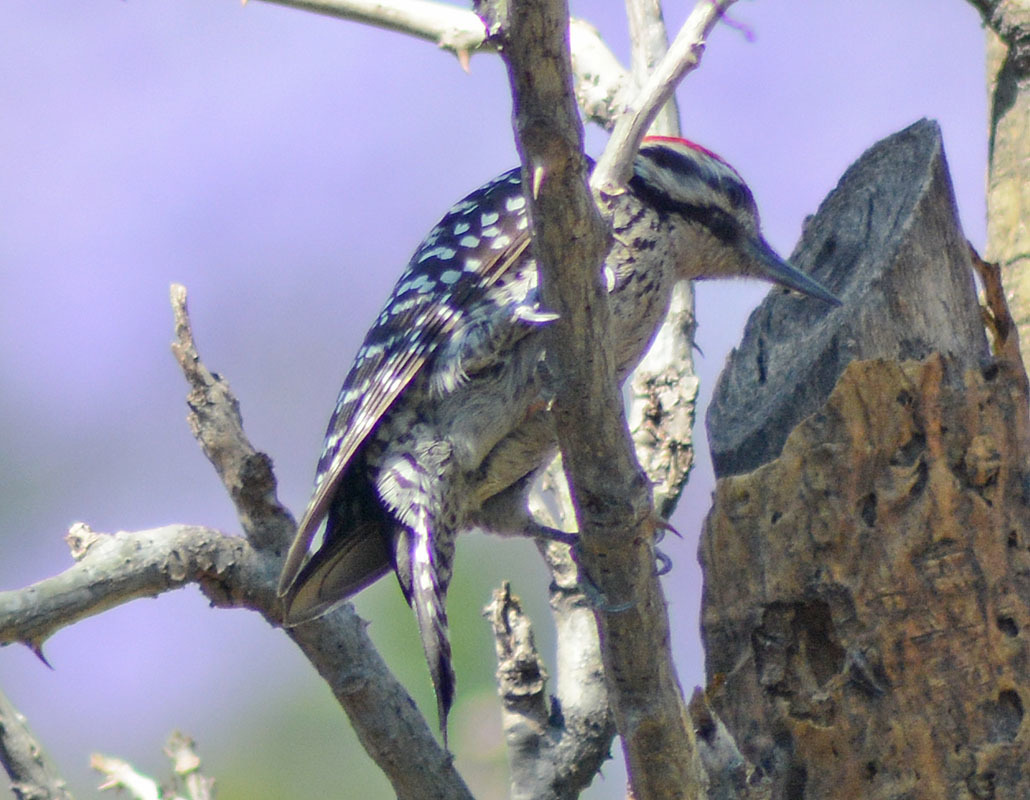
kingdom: Animalia
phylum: Chordata
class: Aves
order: Piciformes
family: Picidae
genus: Dryobates
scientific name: Dryobates scalaris
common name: Ladder-backed woodpecker
